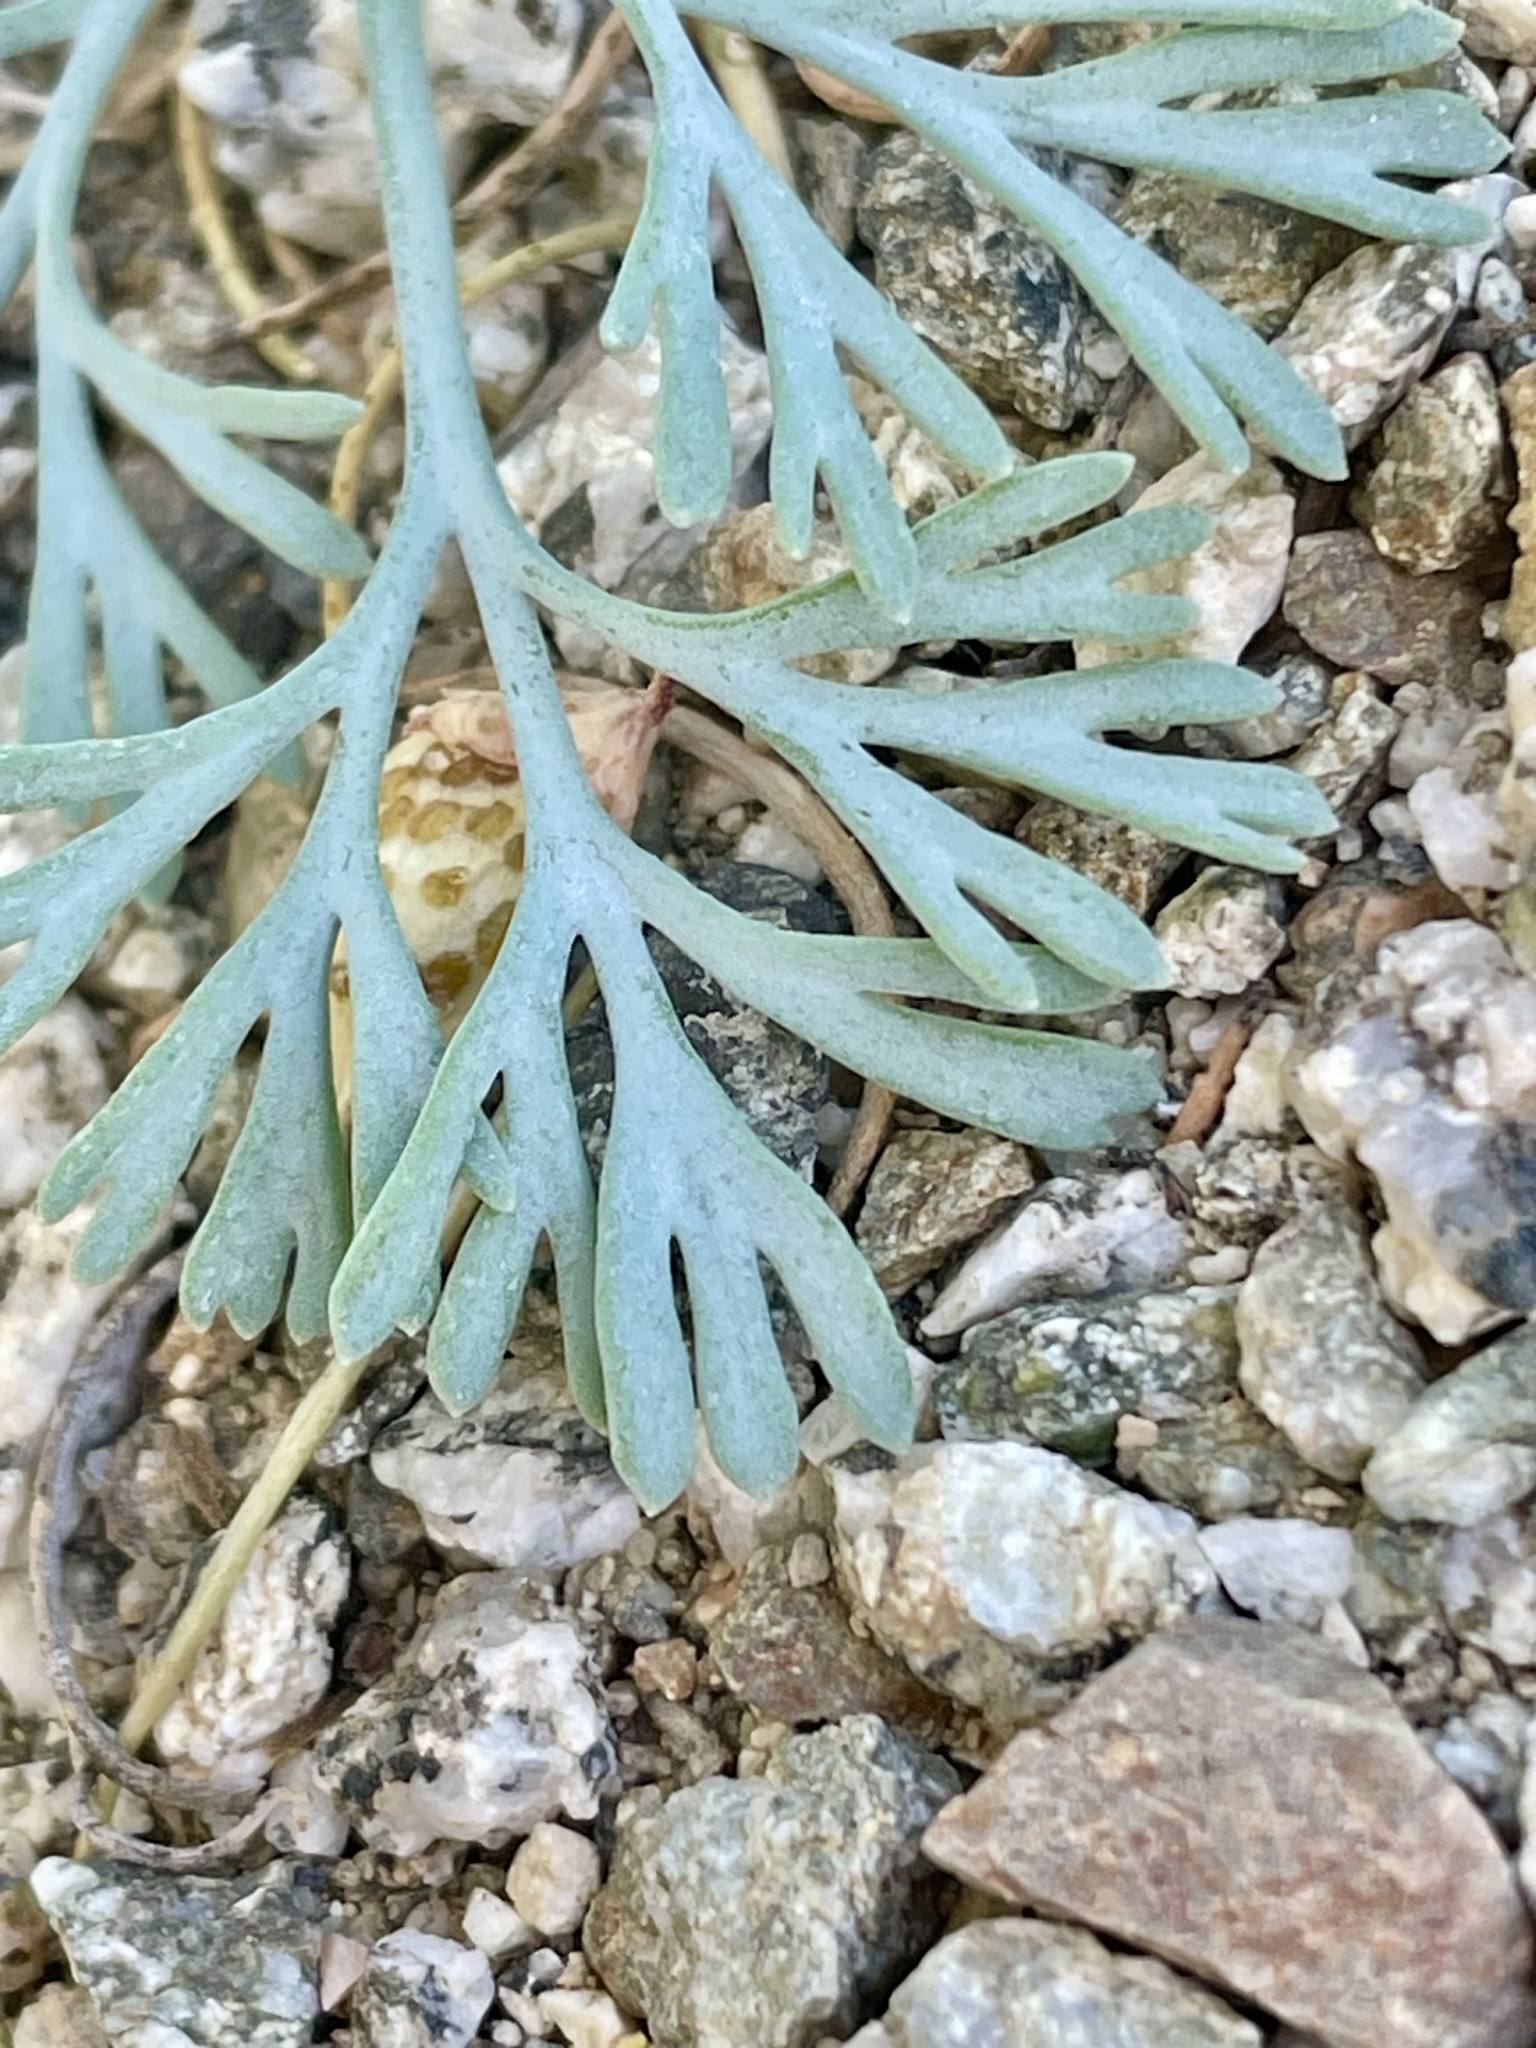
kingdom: Plantae
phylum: Tracheophyta
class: Magnoliopsida
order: Ranunculales
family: Papaveraceae
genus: Eschscholzia
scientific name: Eschscholzia minutiflora
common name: Small-flower california-poppy
